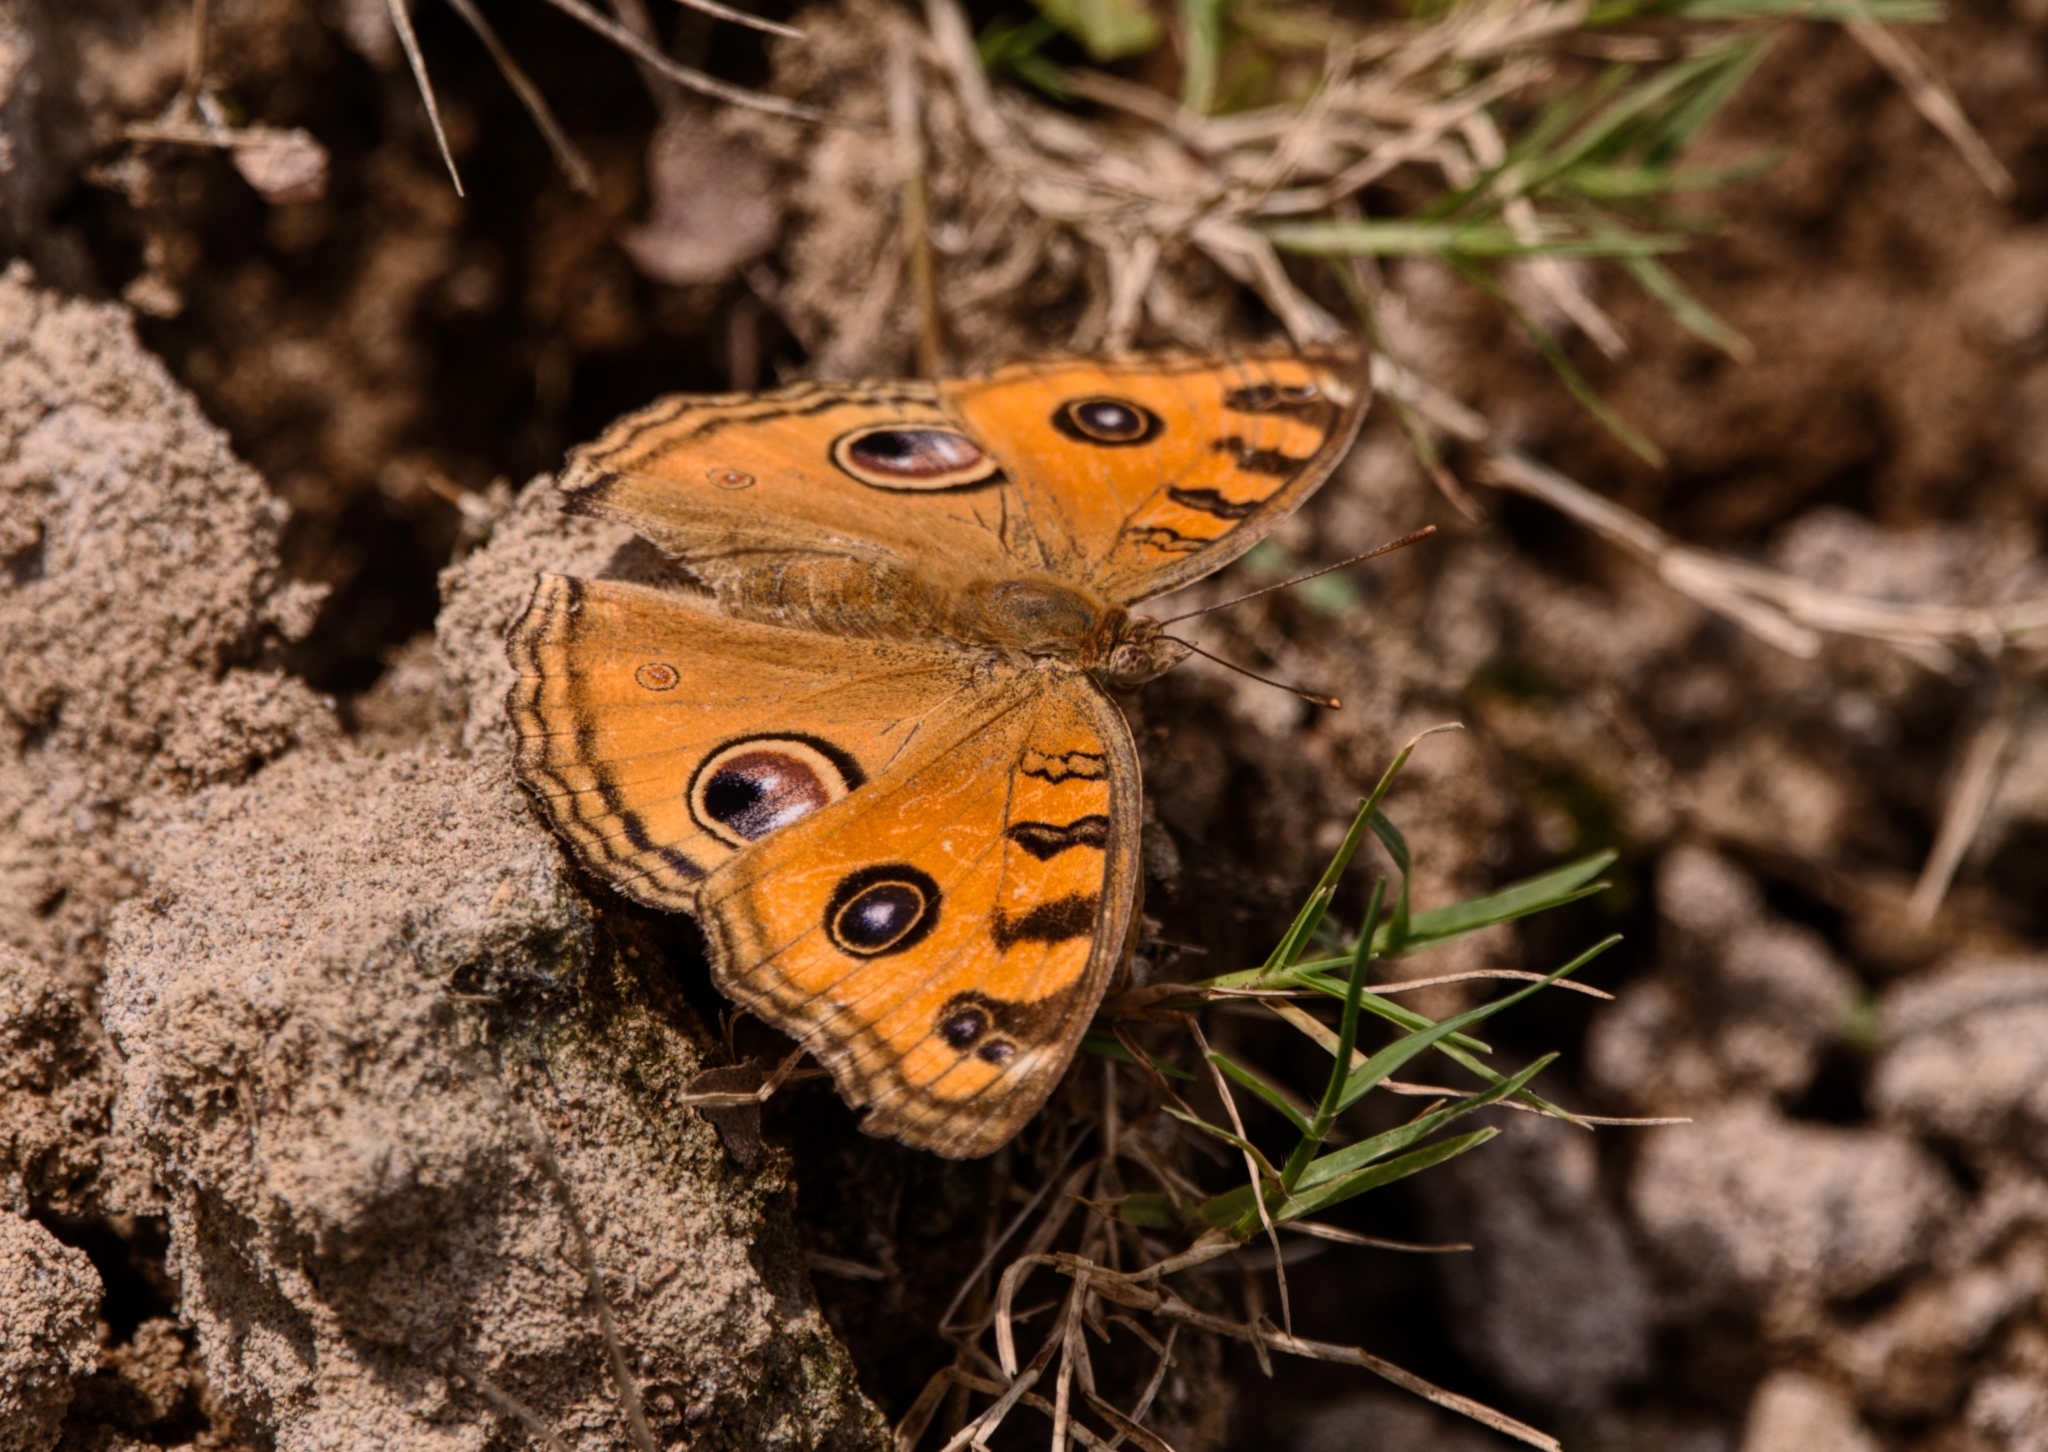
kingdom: Animalia
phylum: Arthropoda
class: Insecta
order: Lepidoptera
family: Nymphalidae
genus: Junonia
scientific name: Junonia almana
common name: Peacock pansy
